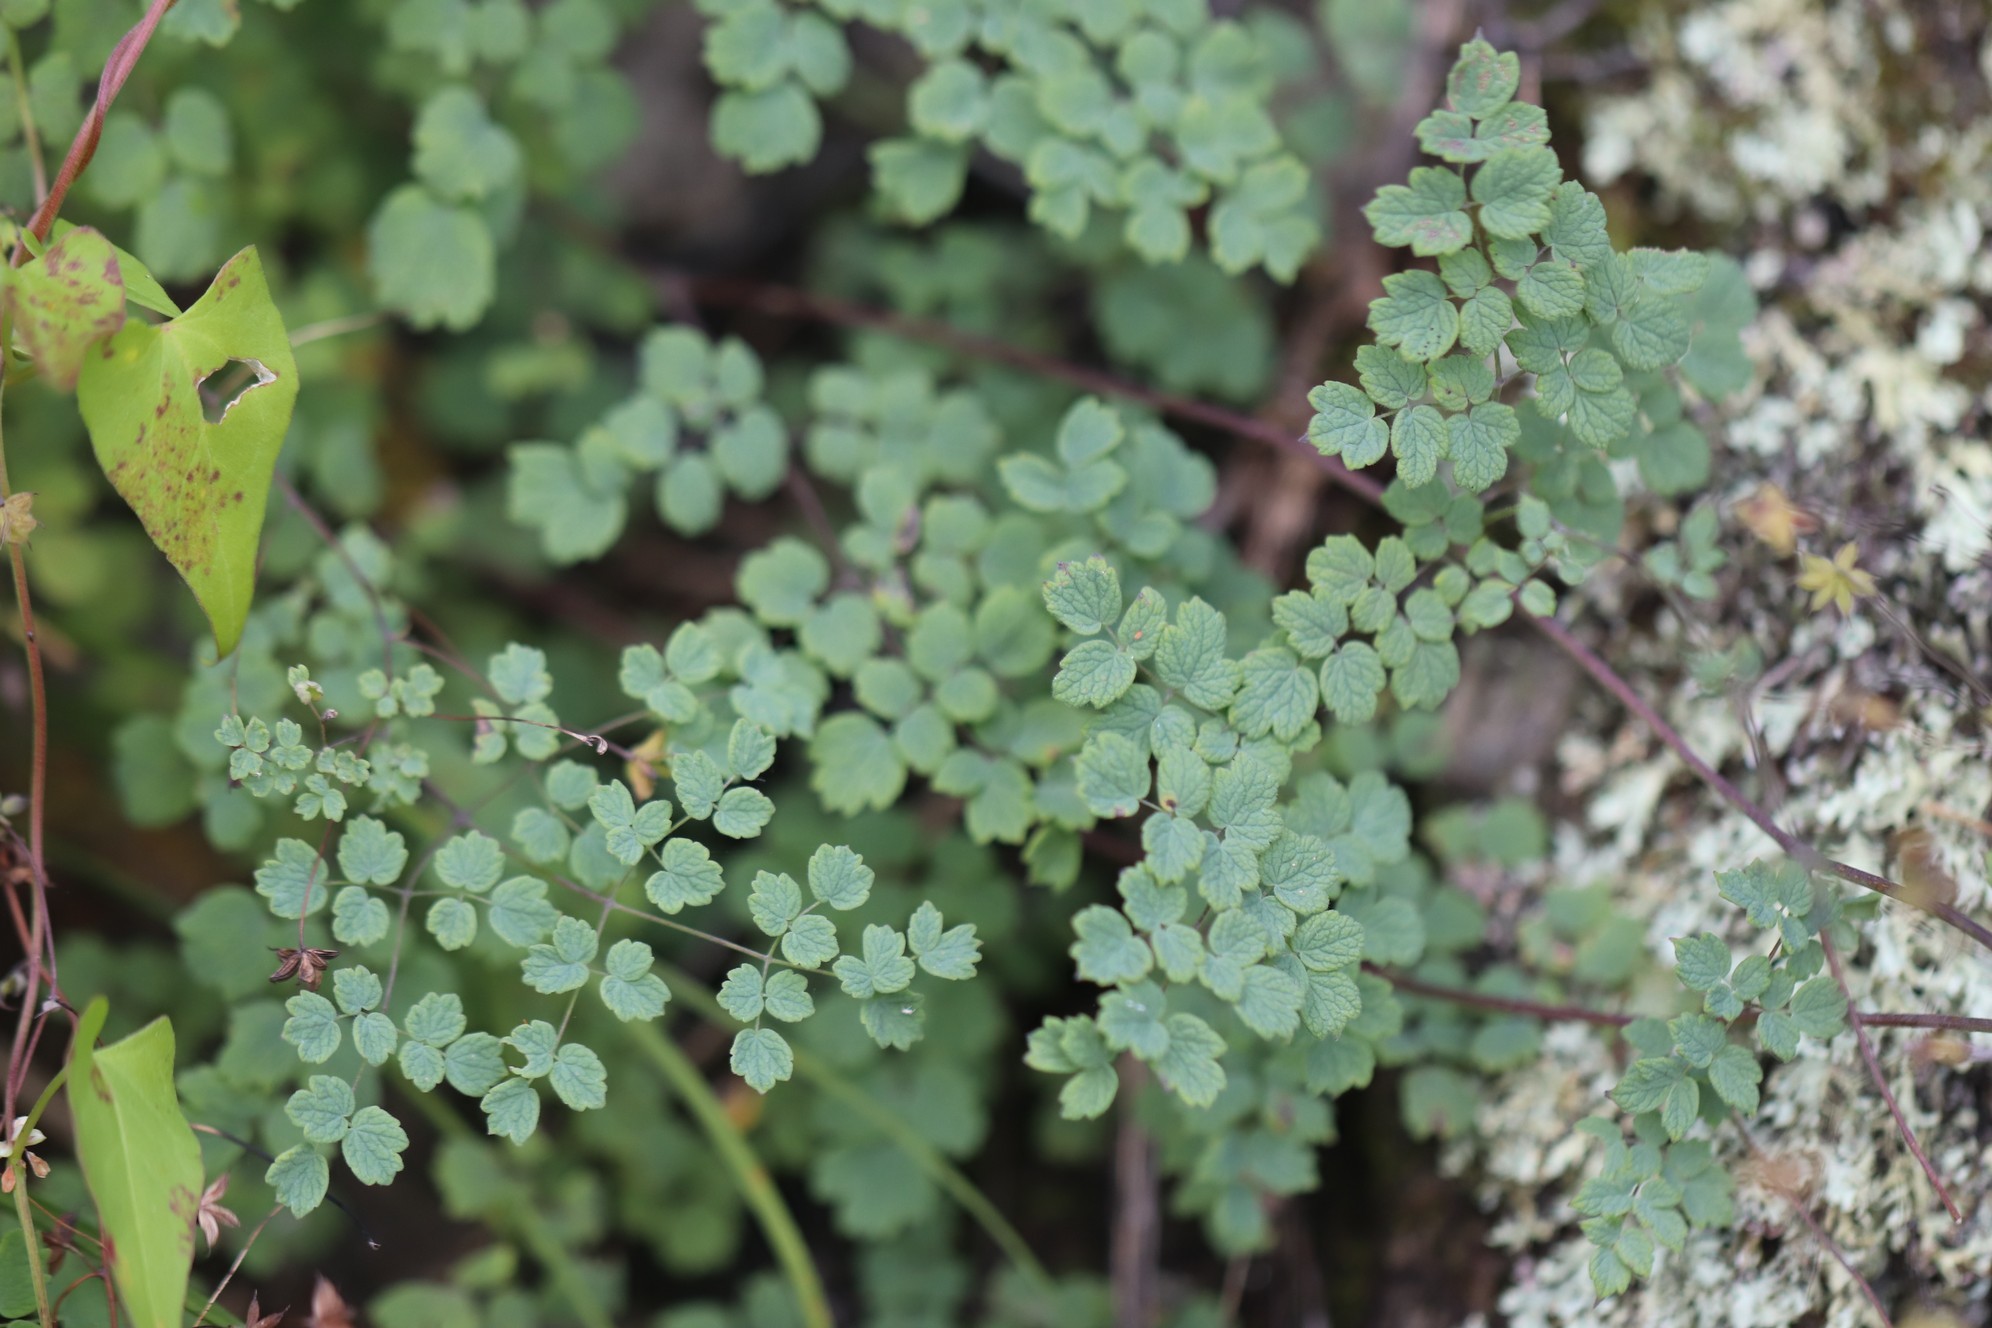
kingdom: Plantae
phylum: Tracheophyta
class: Magnoliopsida
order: Ranunculales
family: Ranunculaceae
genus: Thalictrum
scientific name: Thalictrum foetidum
